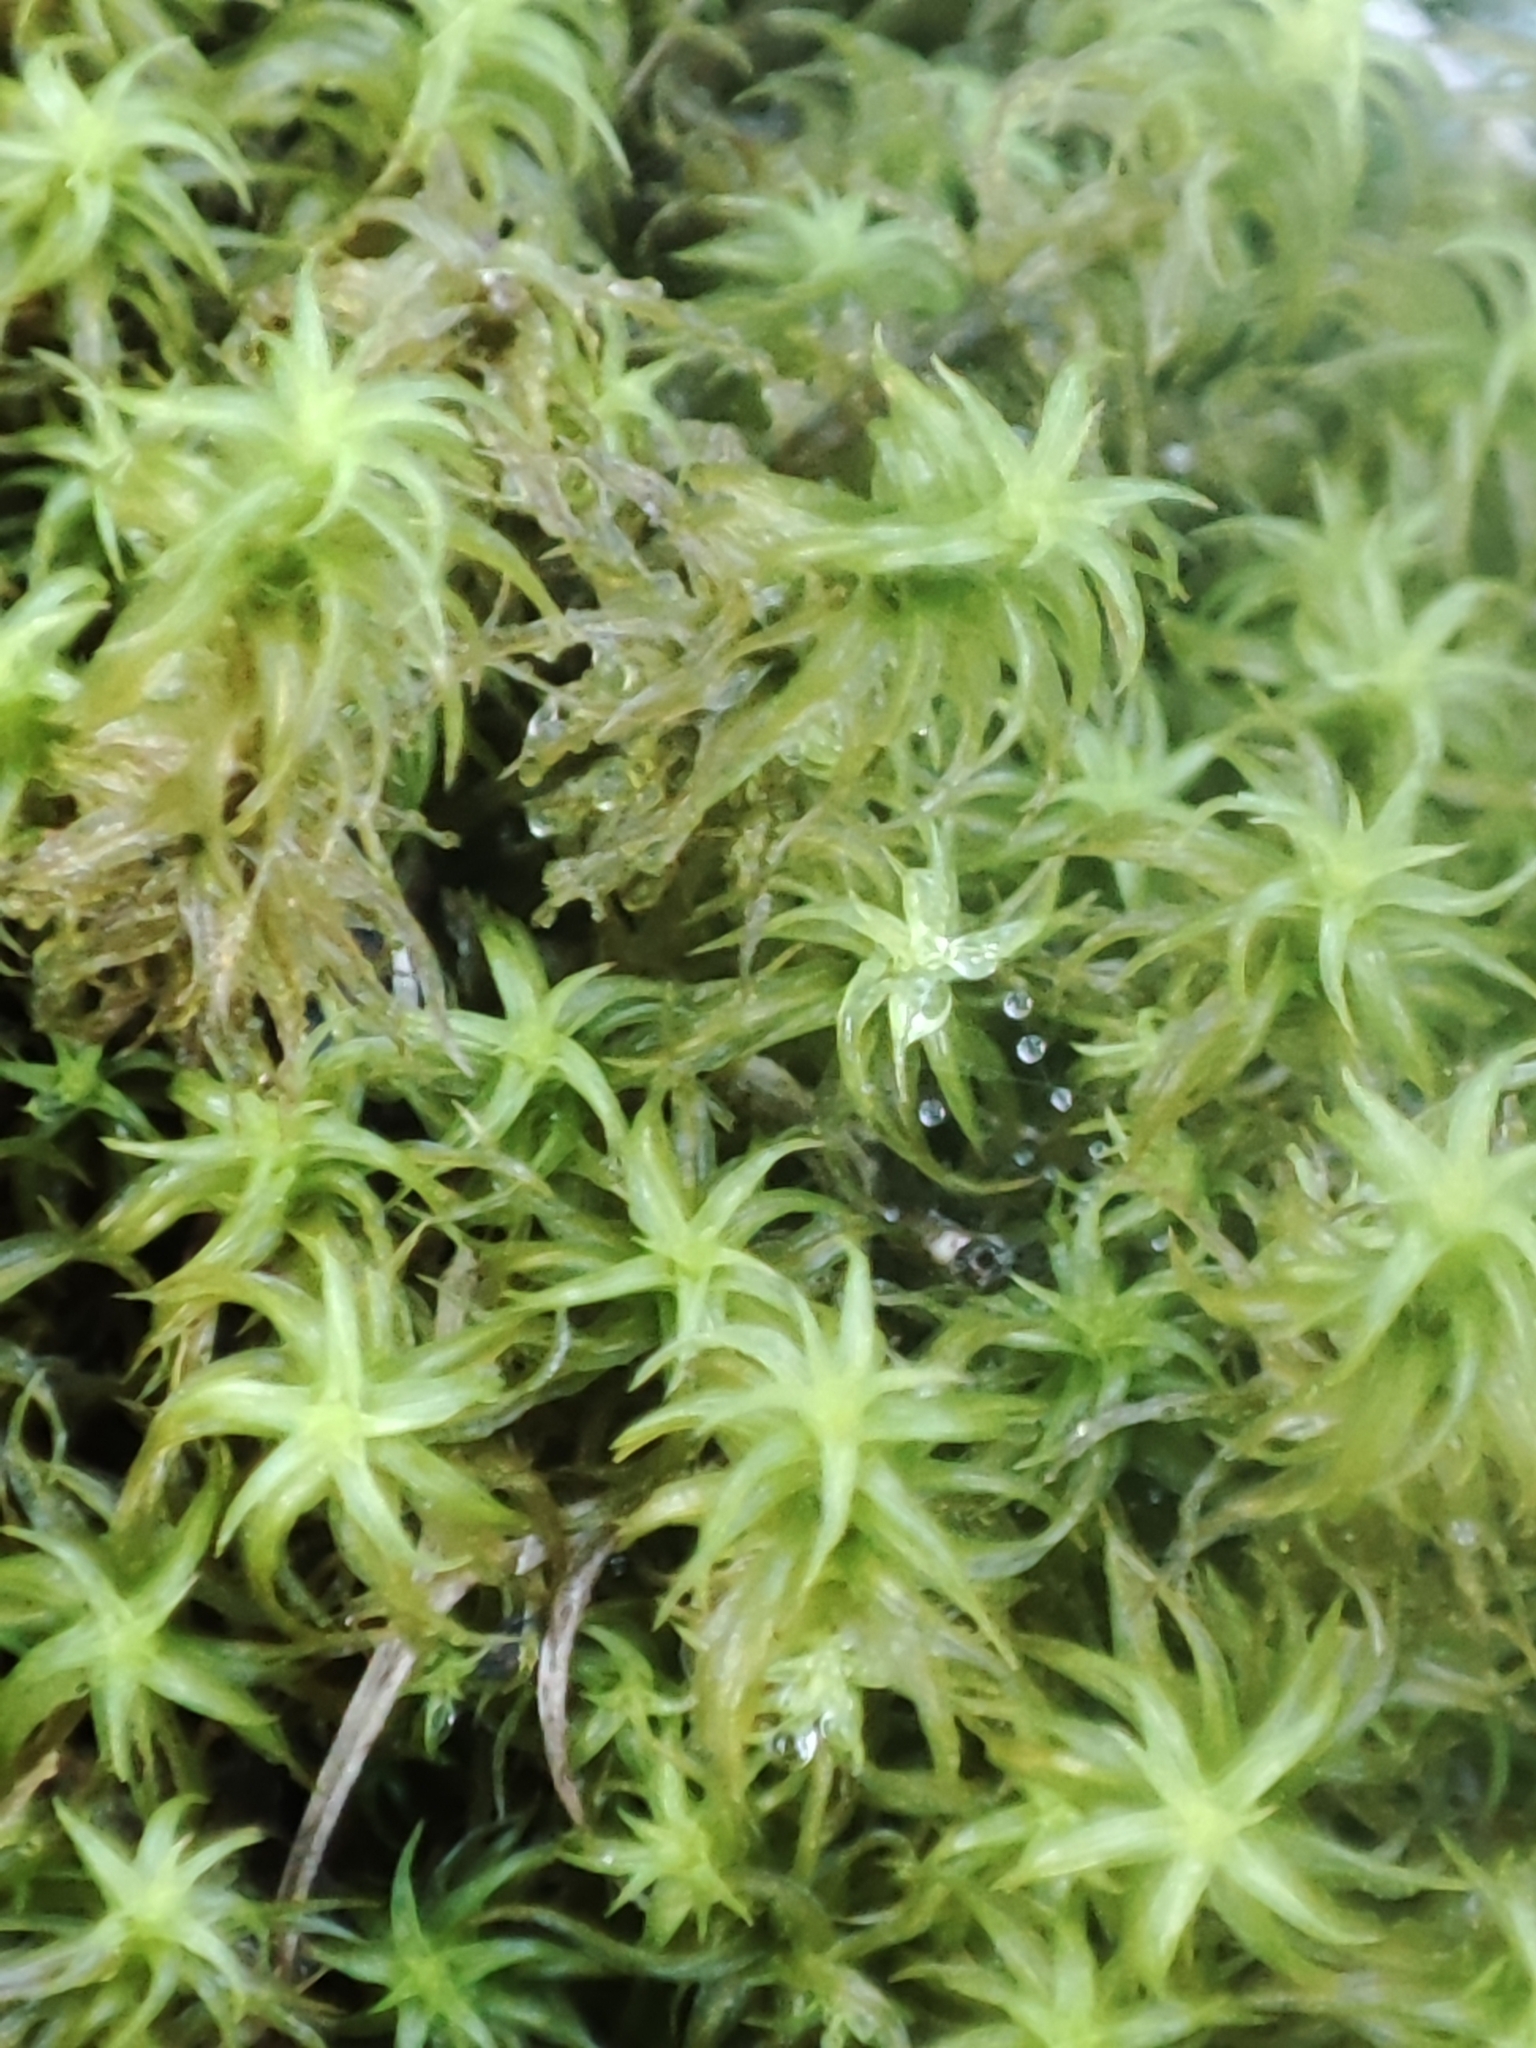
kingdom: Plantae
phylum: Bryophyta
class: Bryopsida
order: Pottiales
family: Pottiaceae
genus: Pleurochaete
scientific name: Pleurochaete squarrosa
